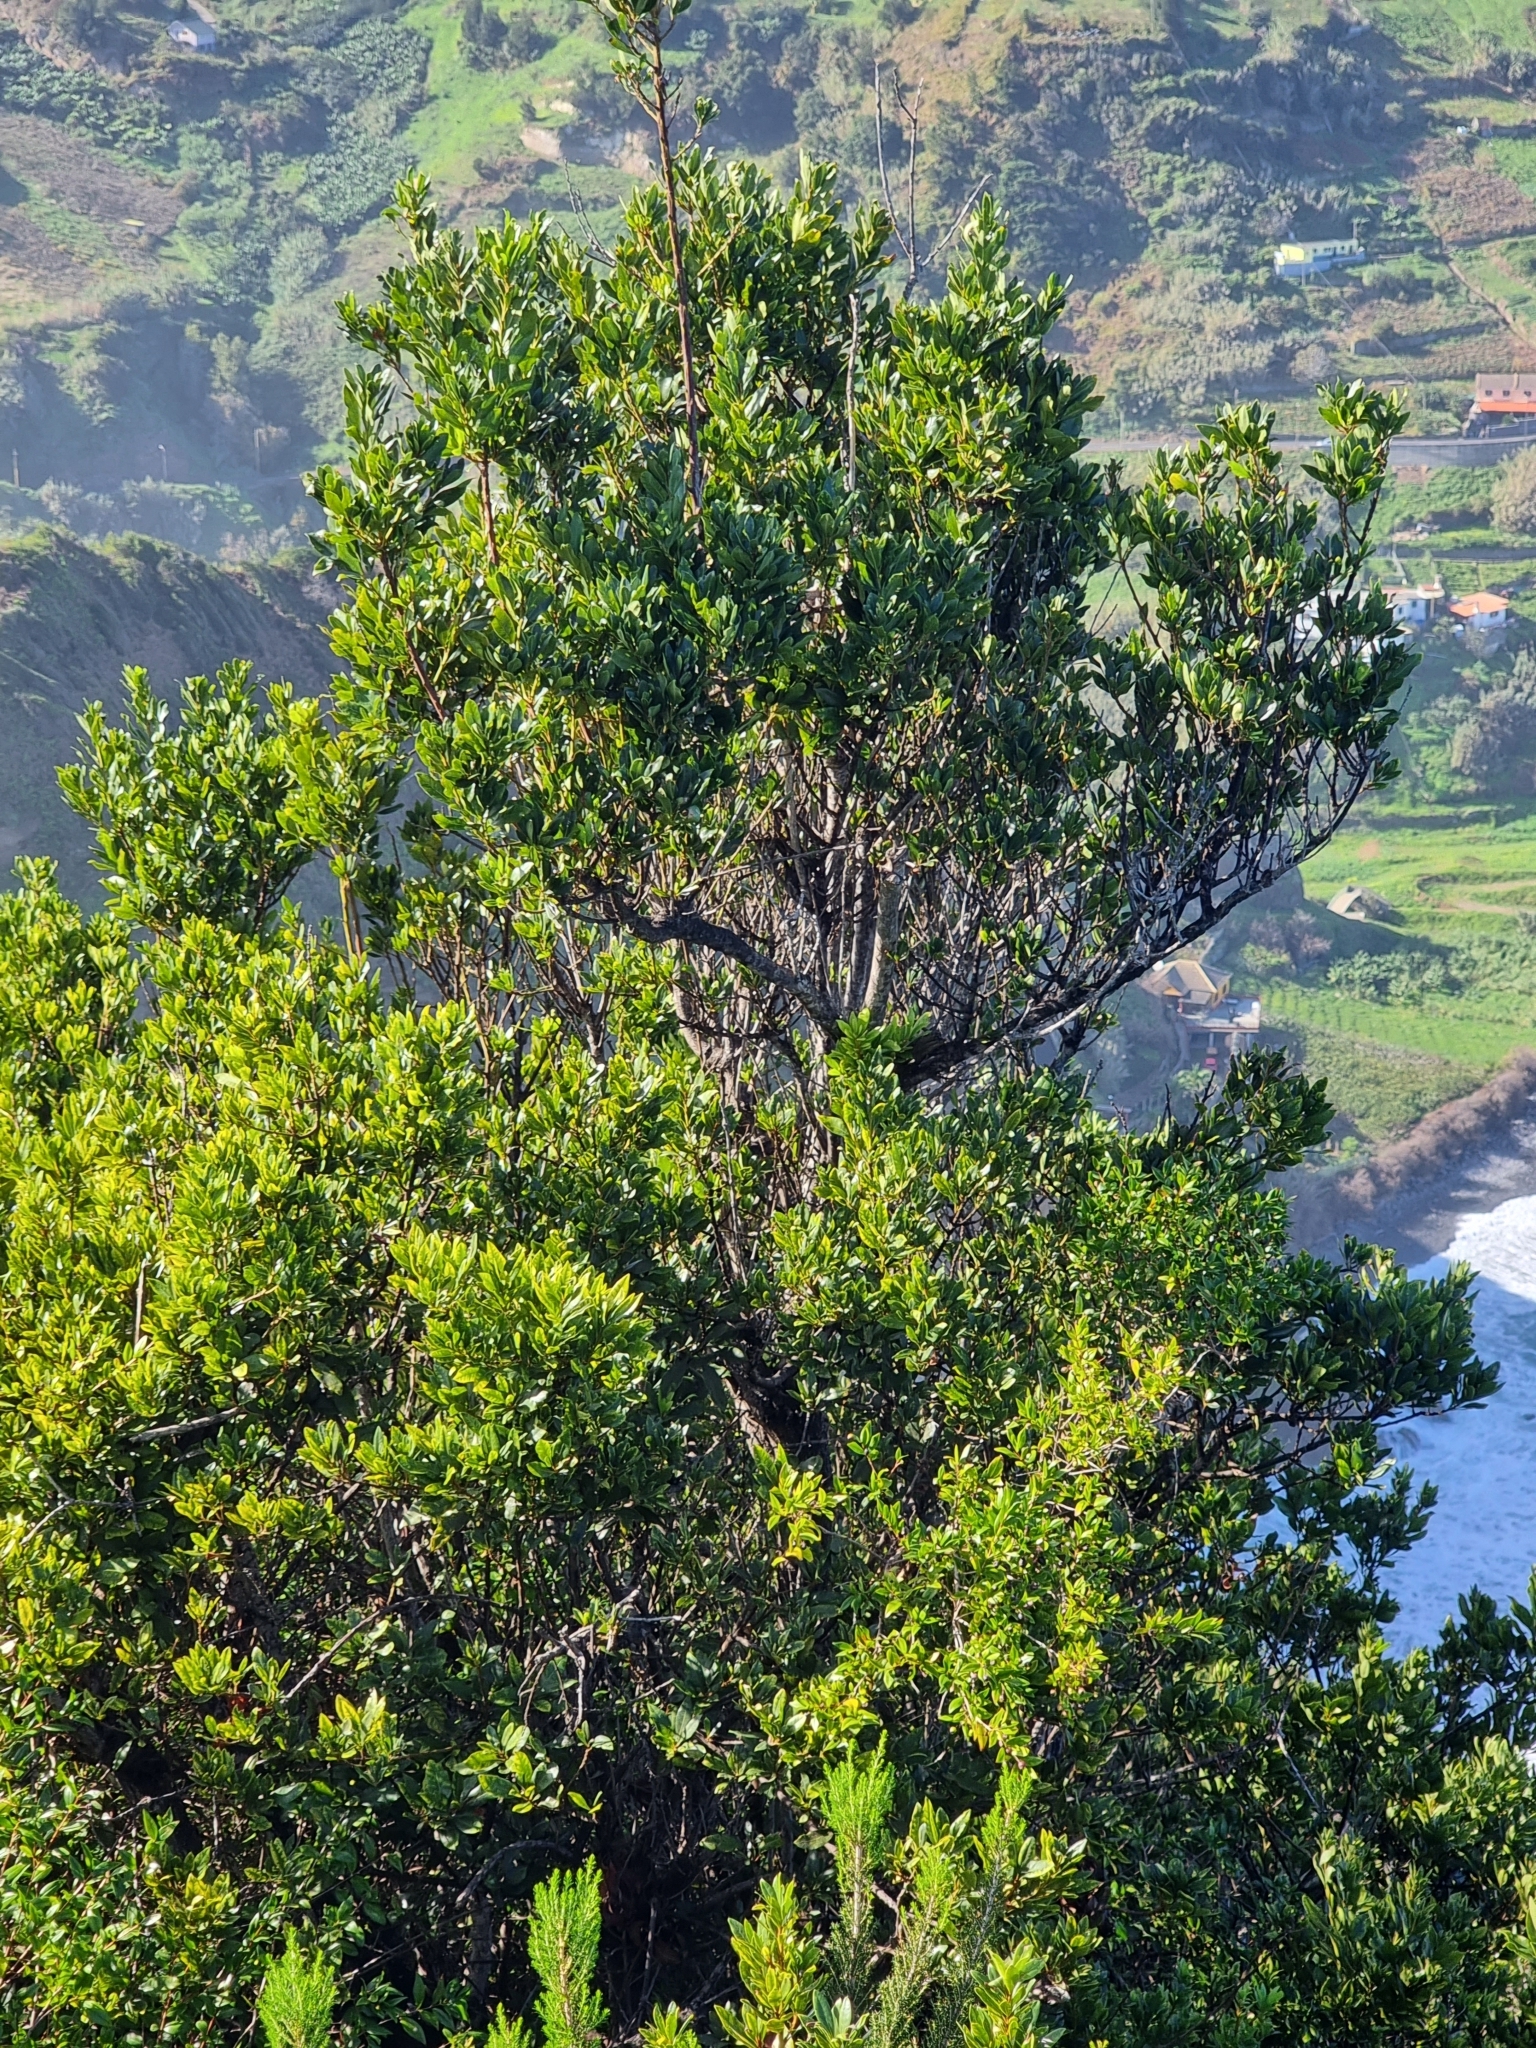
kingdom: Plantae
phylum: Tracheophyta
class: Magnoliopsida
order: Fagales
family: Myricaceae
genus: Morella
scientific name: Morella faya
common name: Firetree
